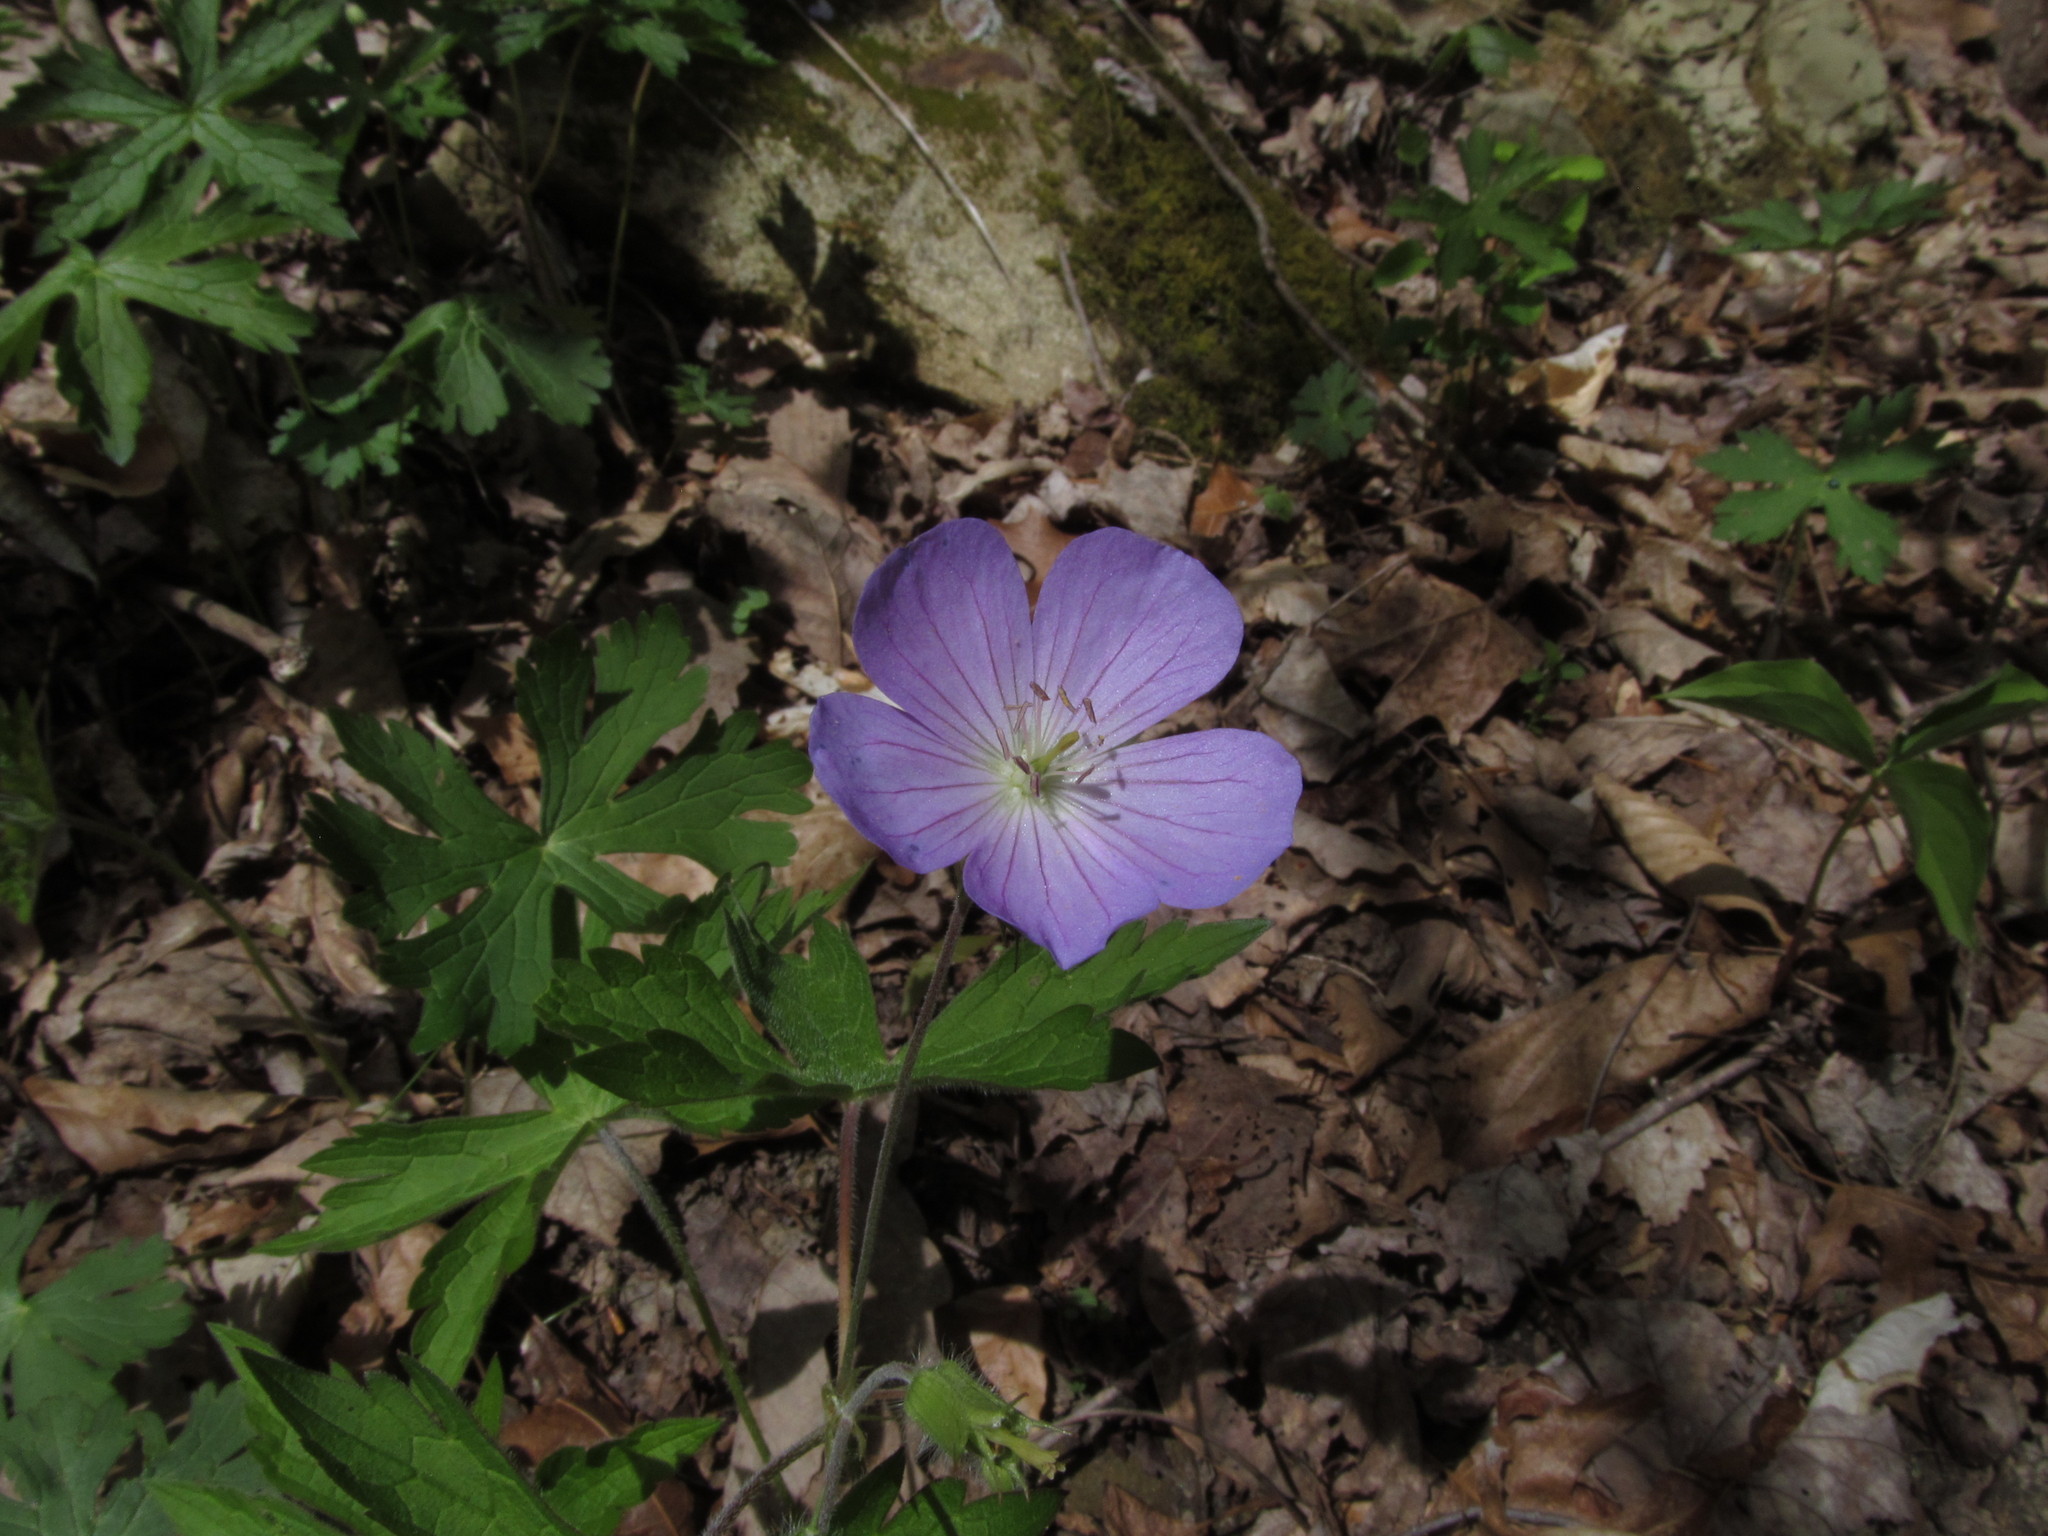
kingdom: Plantae
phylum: Tracheophyta
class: Magnoliopsida
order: Geraniales
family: Geraniaceae
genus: Geranium
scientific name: Geranium maculatum
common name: Spotted geranium
